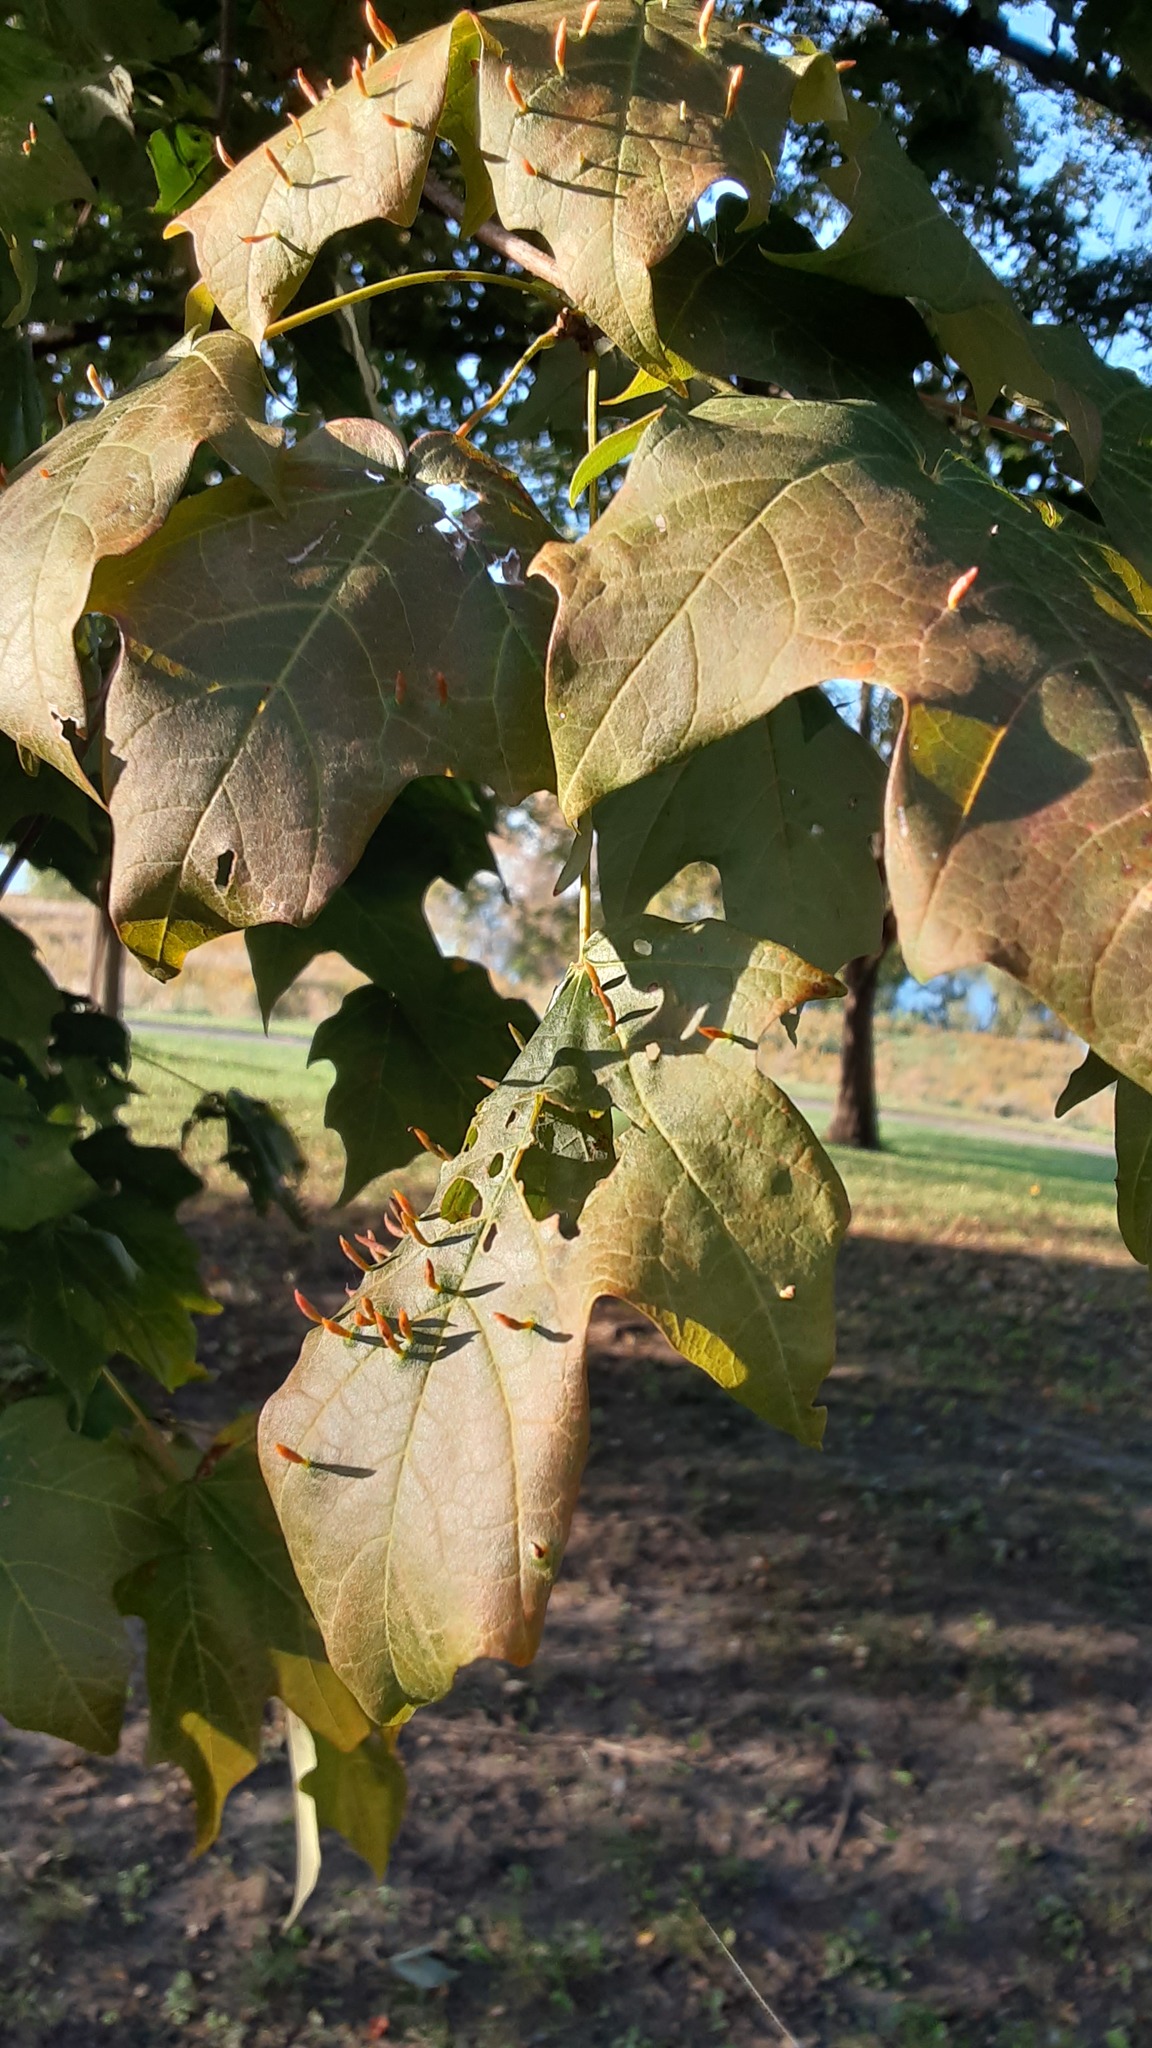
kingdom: Animalia
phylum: Arthropoda
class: Arachnida
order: Trombidiformes
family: Eriophyidae
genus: Vasates
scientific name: Vasates aceriscrumena
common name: Maple spindle gall mite
